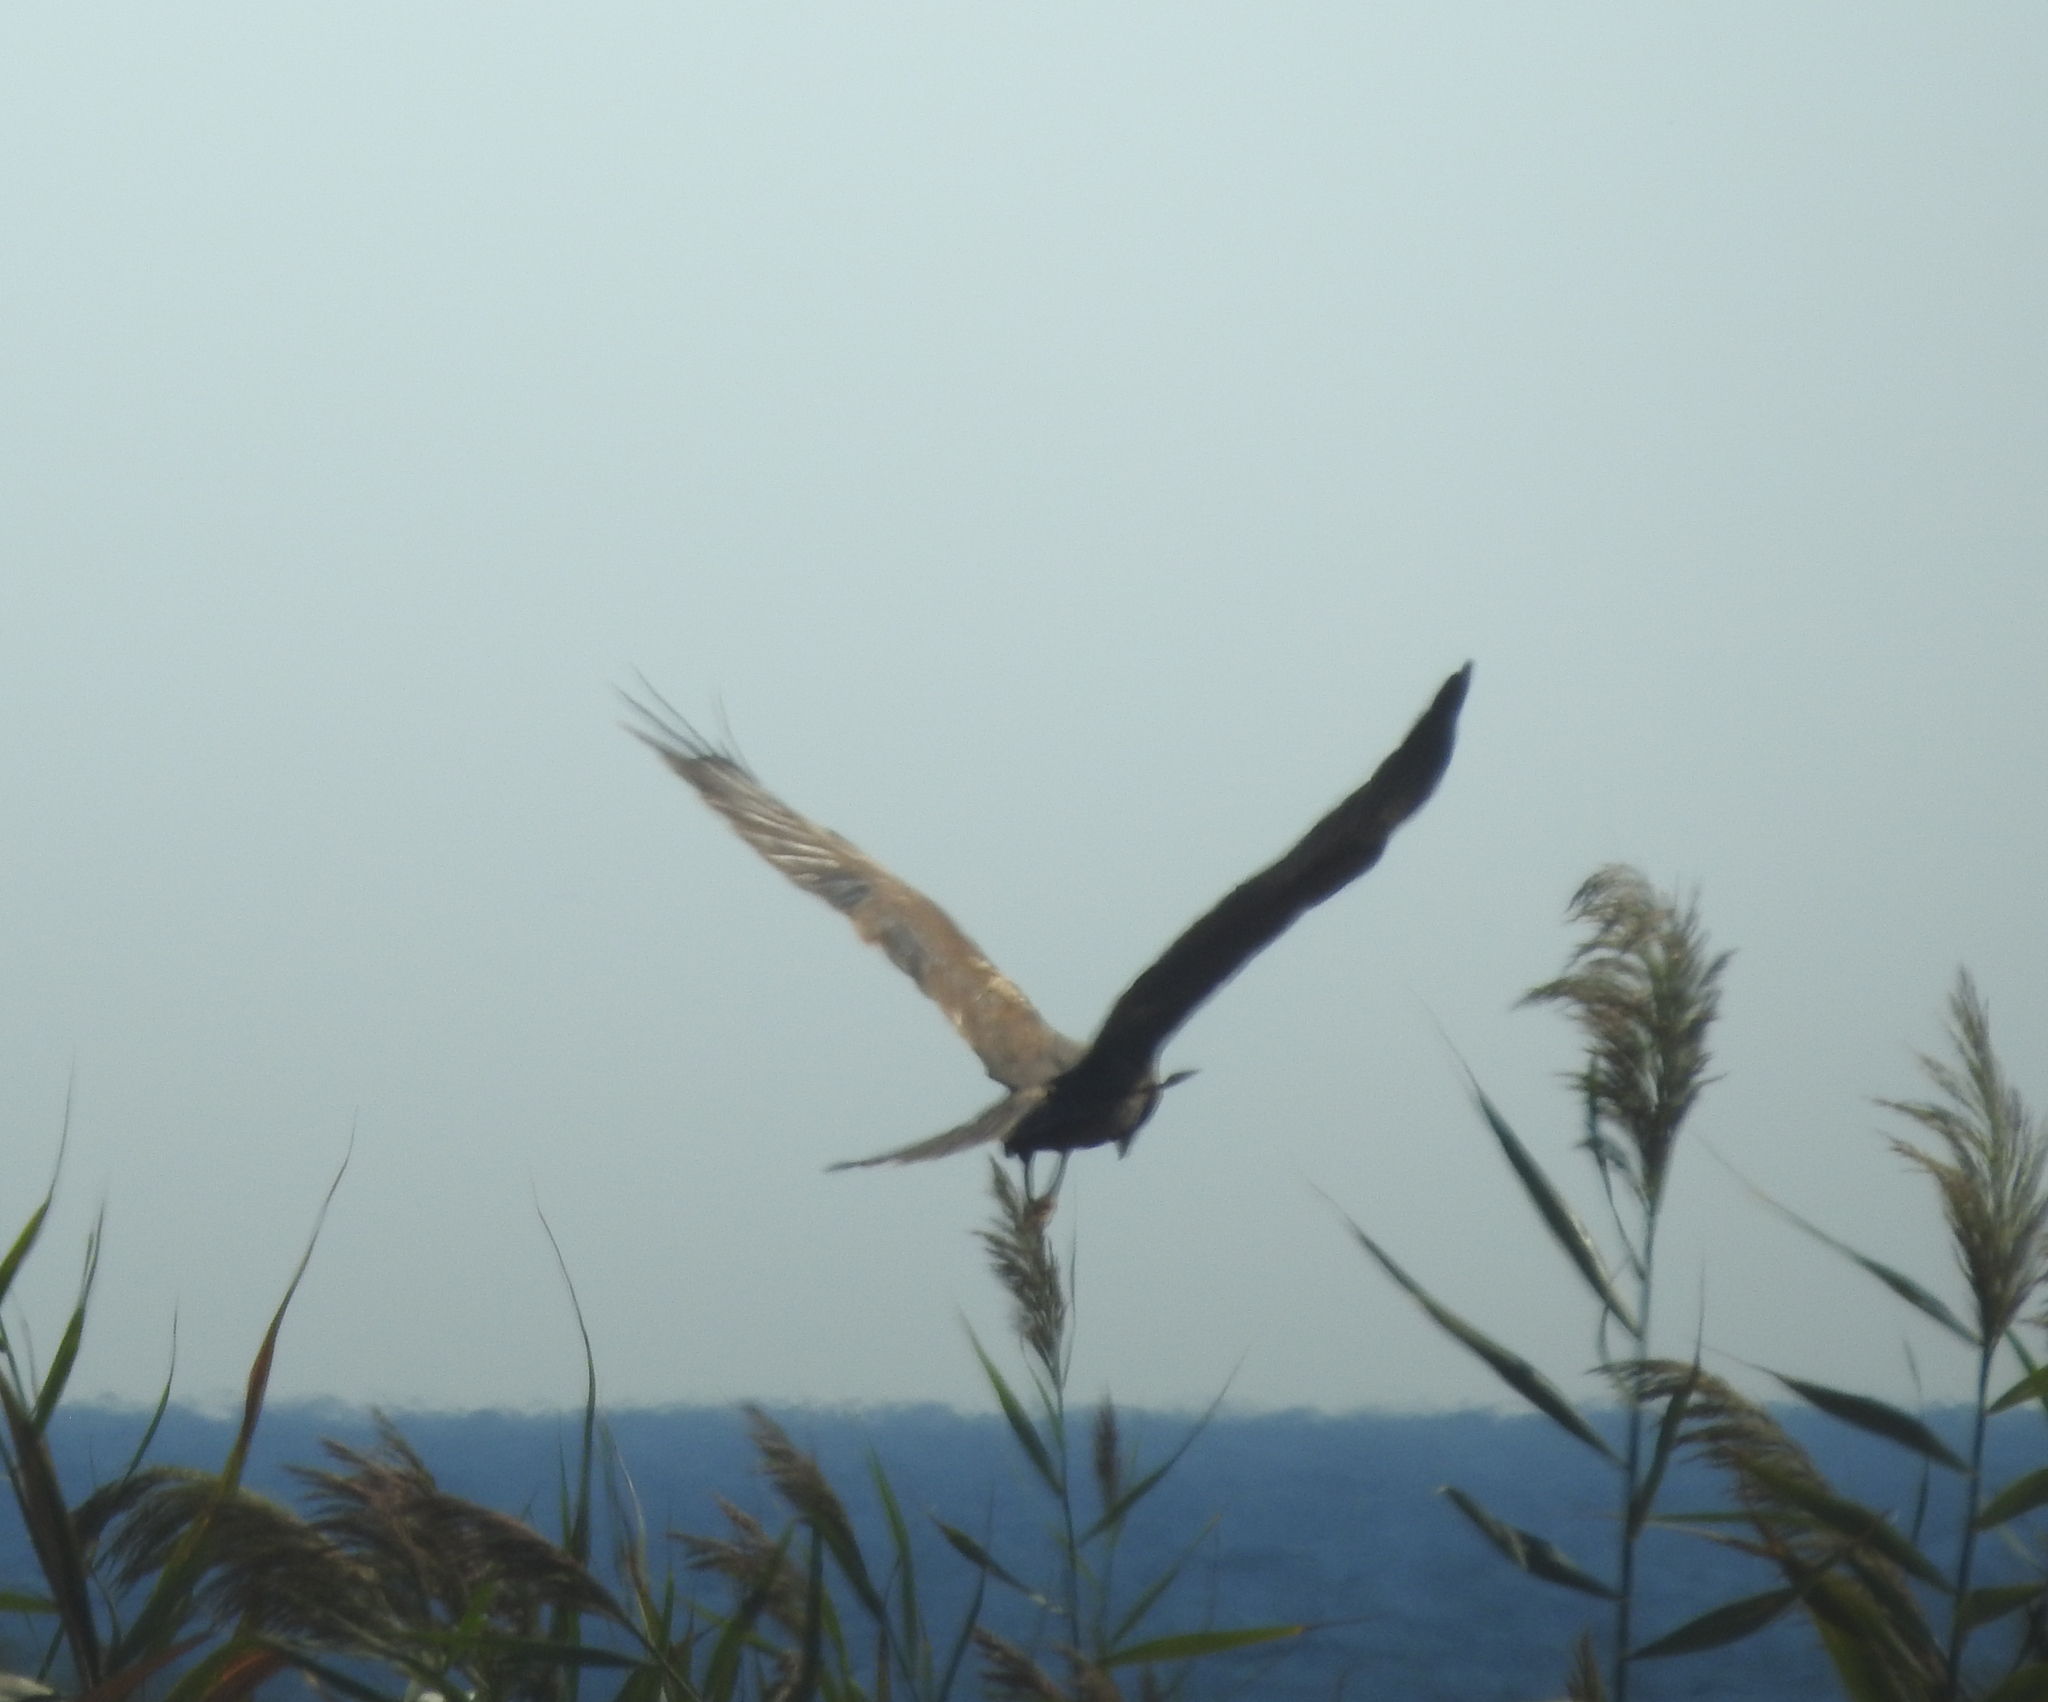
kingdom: Animalia
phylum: Chordata
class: Aves
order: Accipitriformes
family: Accipitridae
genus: Circus
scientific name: Circus aeruginosus
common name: Western marsh harrier
